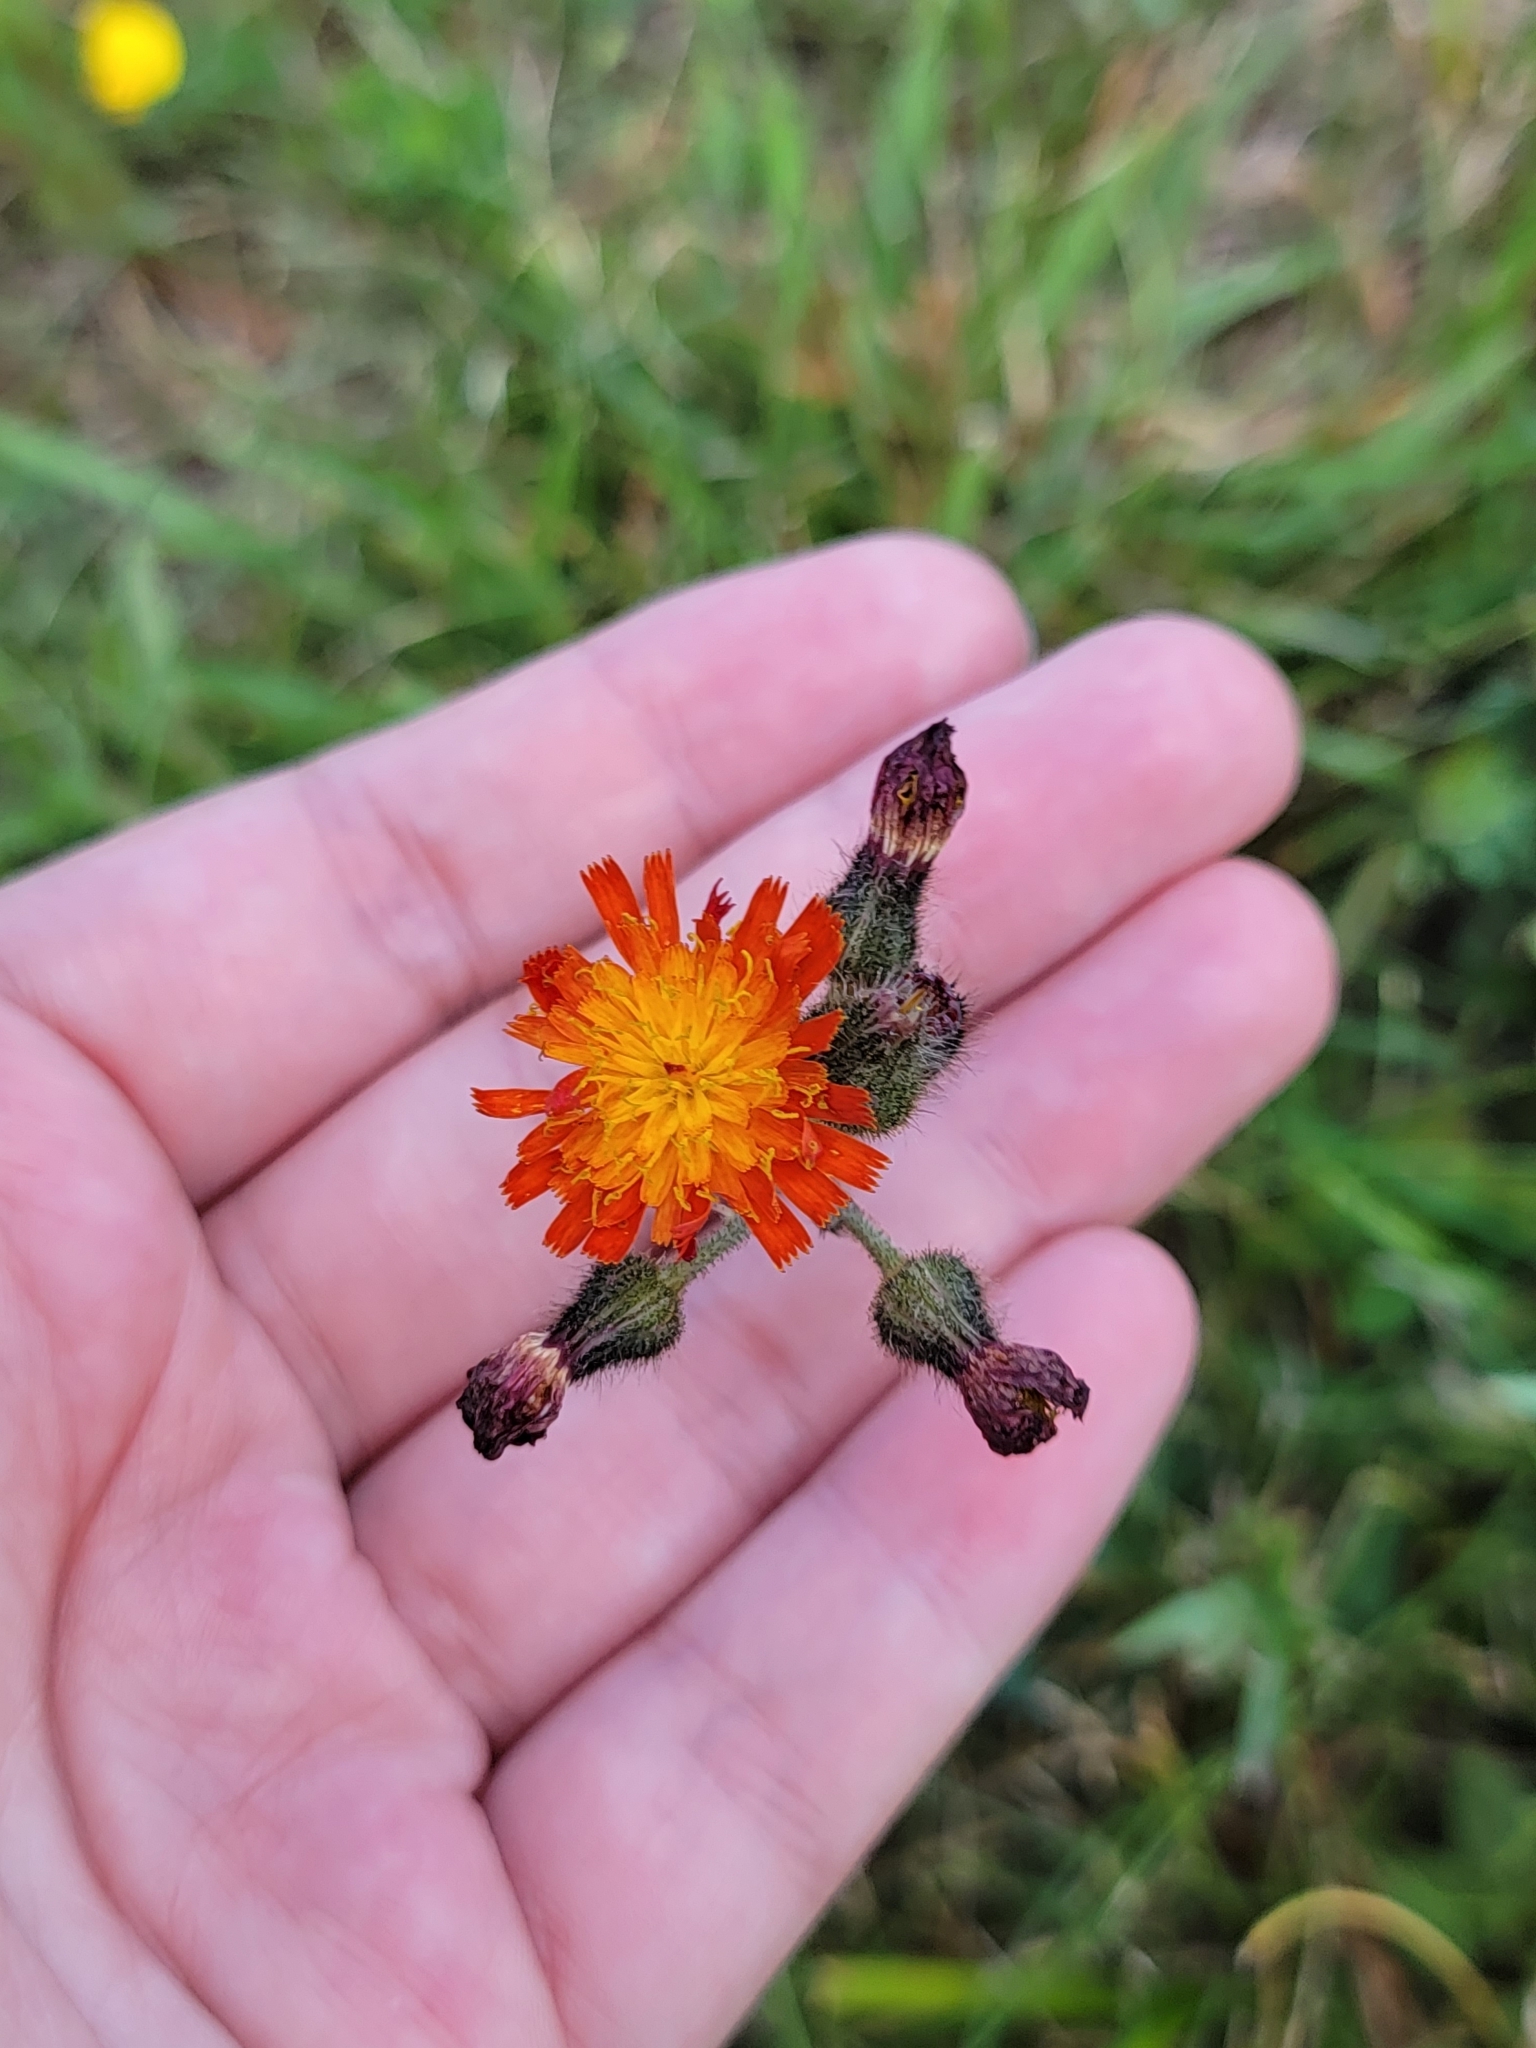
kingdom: Plantae
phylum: Tracheophyta
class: Magnoliopsida
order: Asterales
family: Asteraceae
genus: Pilosella
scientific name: Pilosella aurantiaca
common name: Fox-and-cubs
